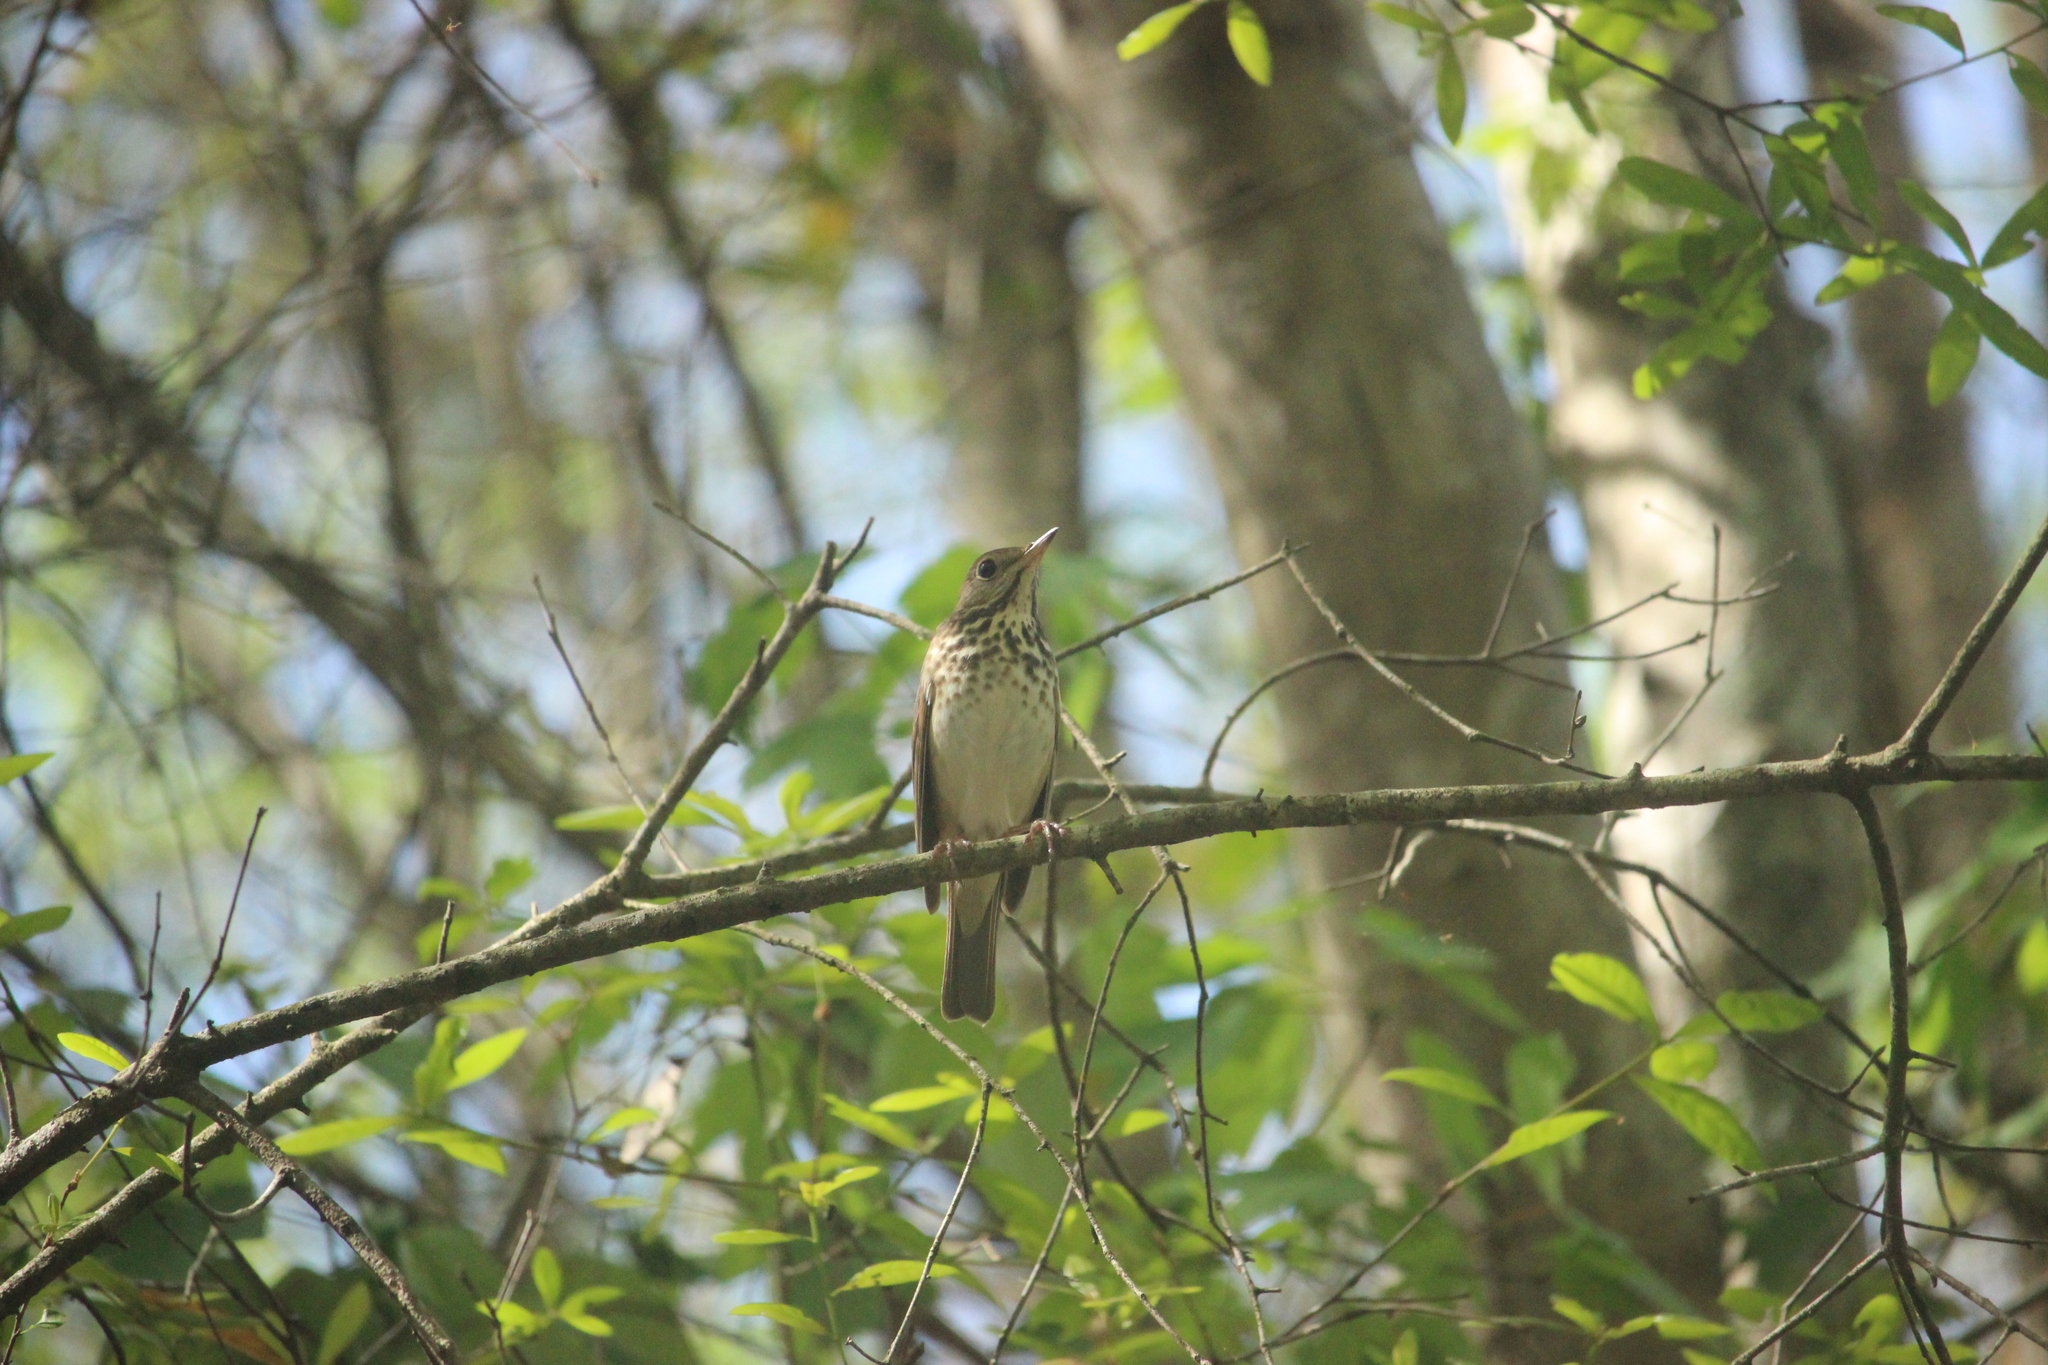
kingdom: Animalia
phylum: Chordata
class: Aves
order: Passeriformes
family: Turdidae
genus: Catharus
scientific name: Catharus guttatus
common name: Hermit thrush
